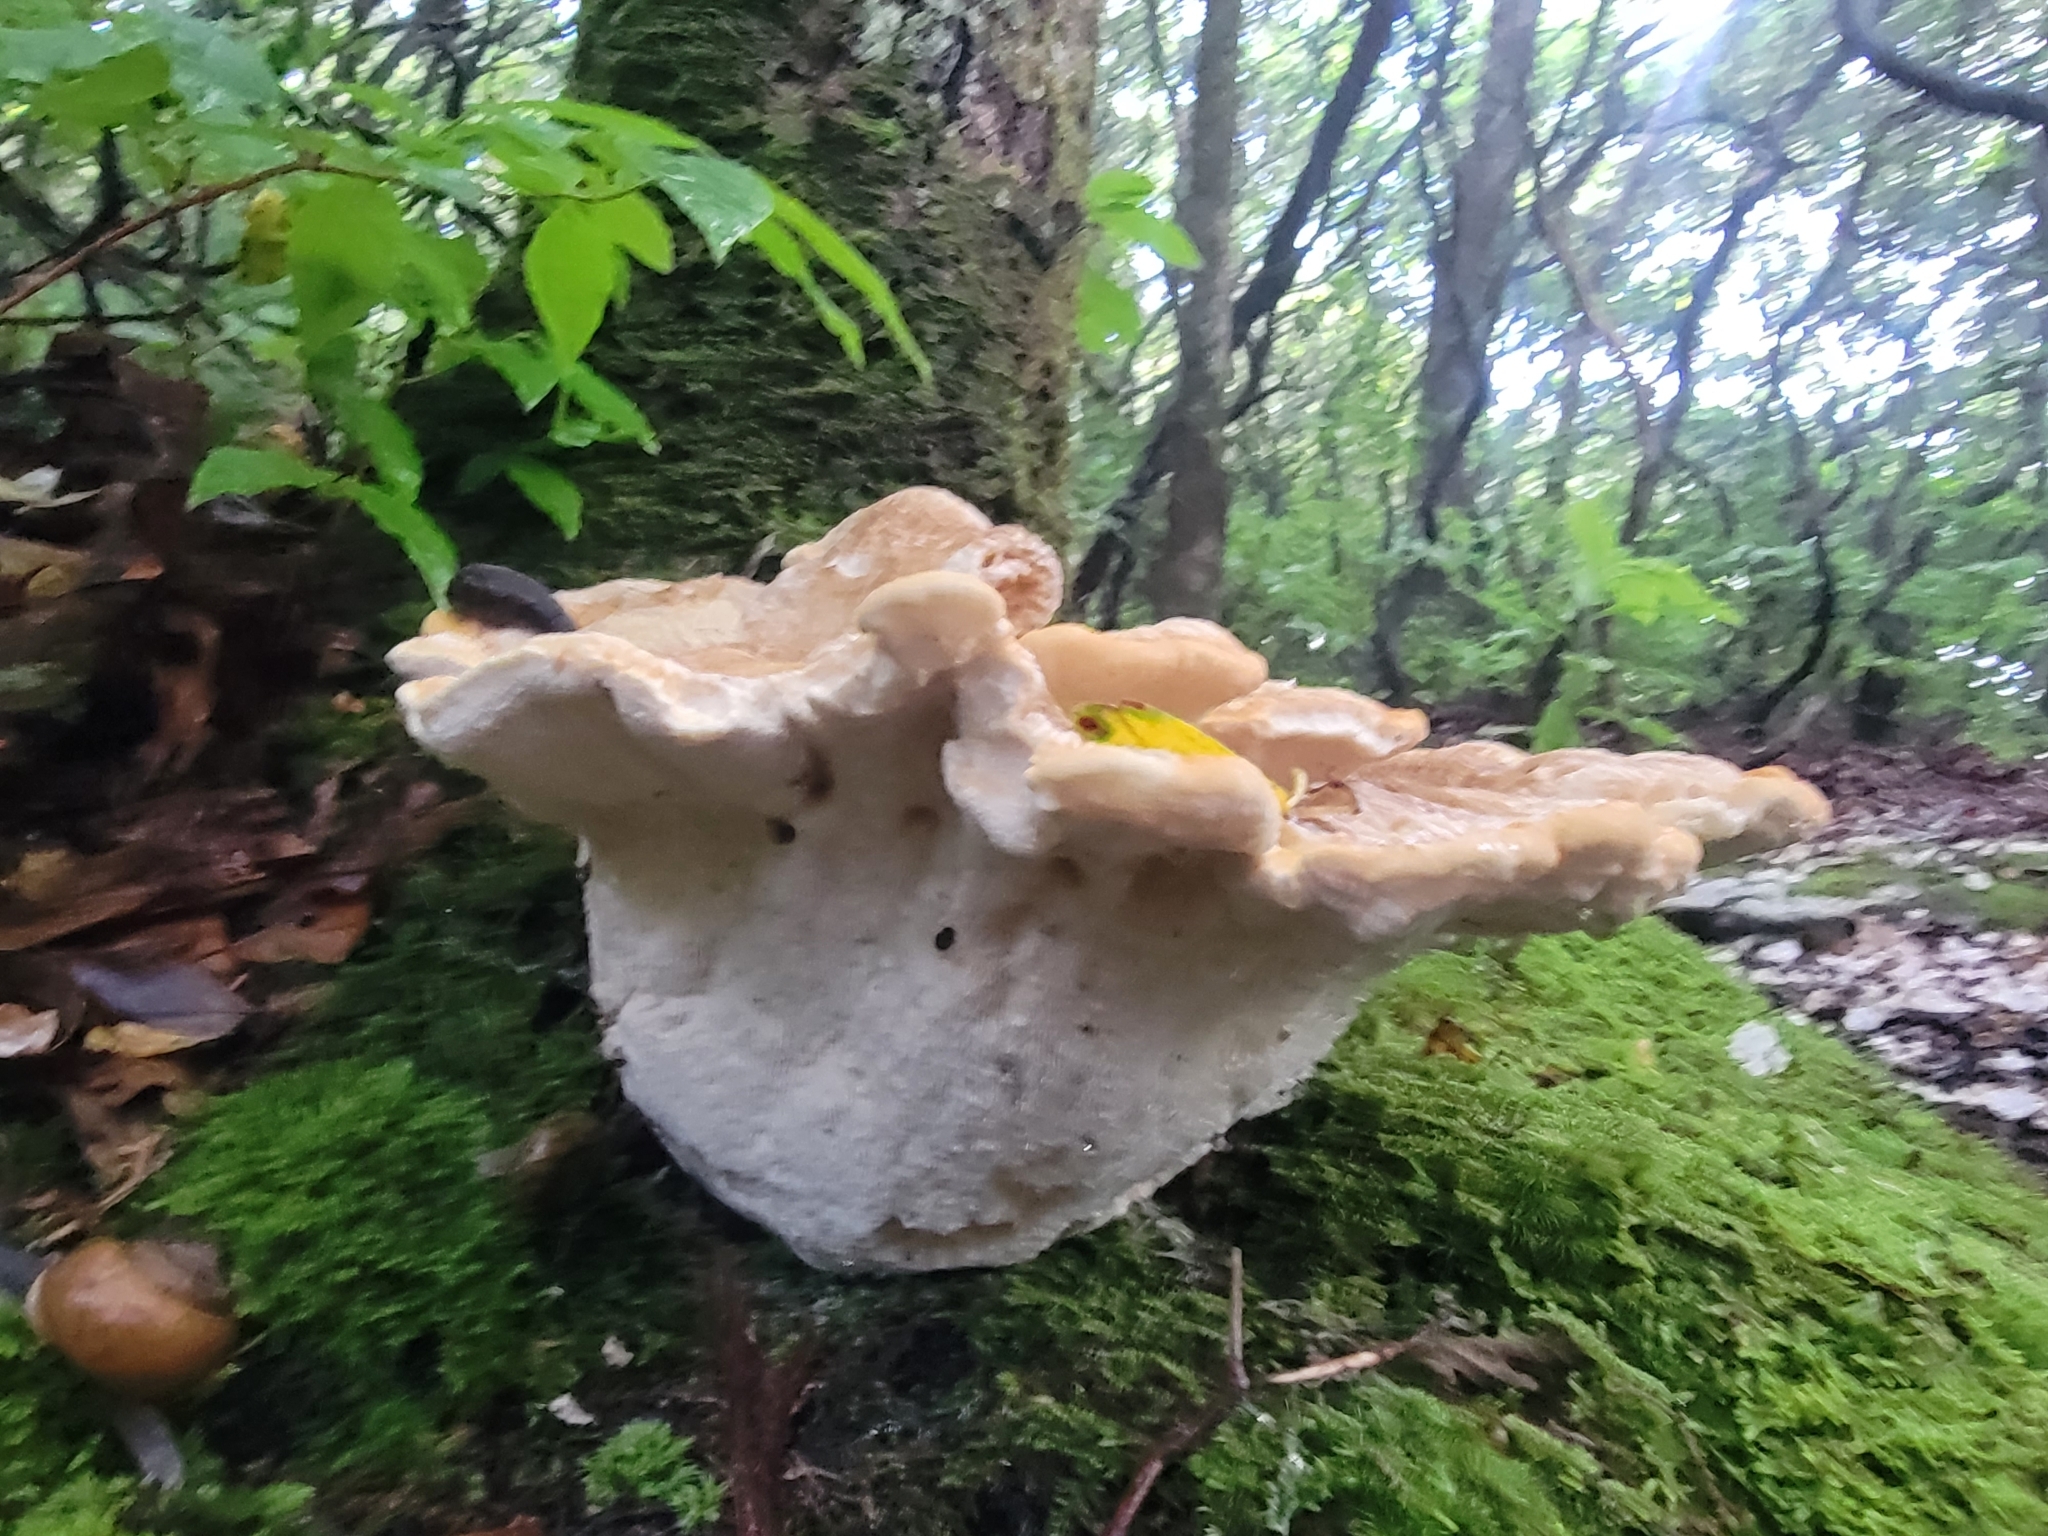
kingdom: Fungi
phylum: Basidiomycota
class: Agaricomycetes
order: Russulales
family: Bondarzewiaceae
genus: Bondarzewia
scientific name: Bondarzewia berkeleyi
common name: Berkeley's polypore
